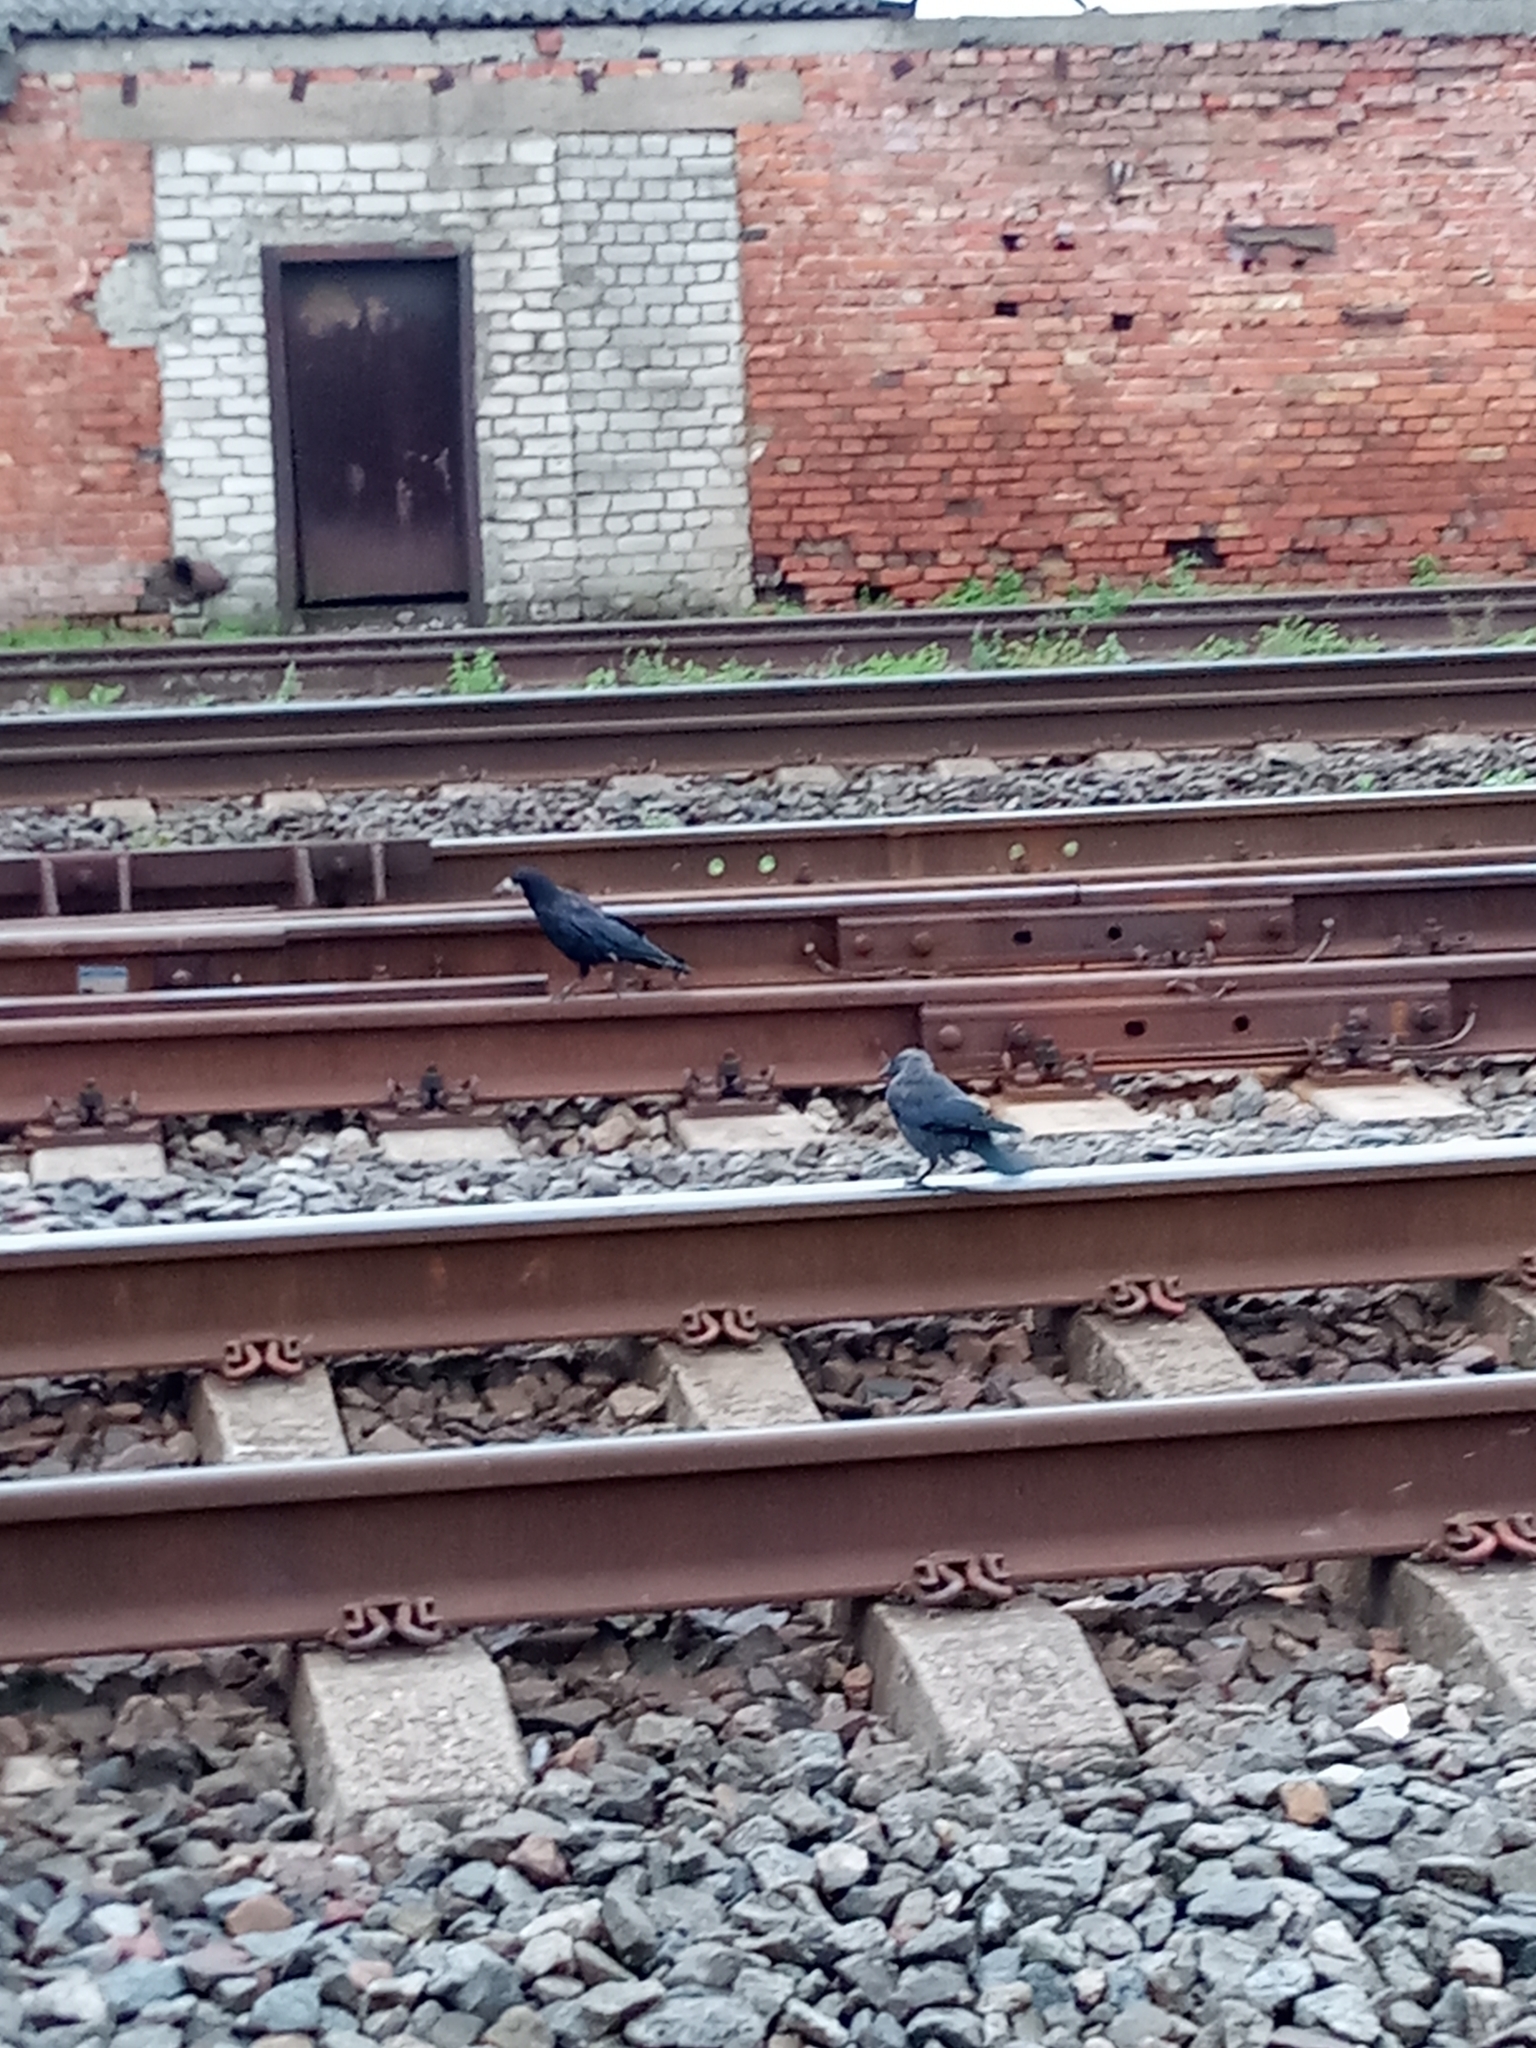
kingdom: Animalia
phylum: Chordata
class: Aves
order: Passeriformes
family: Corvidae
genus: Coloeus
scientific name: Coloeus monedula
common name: Western jackdaw
